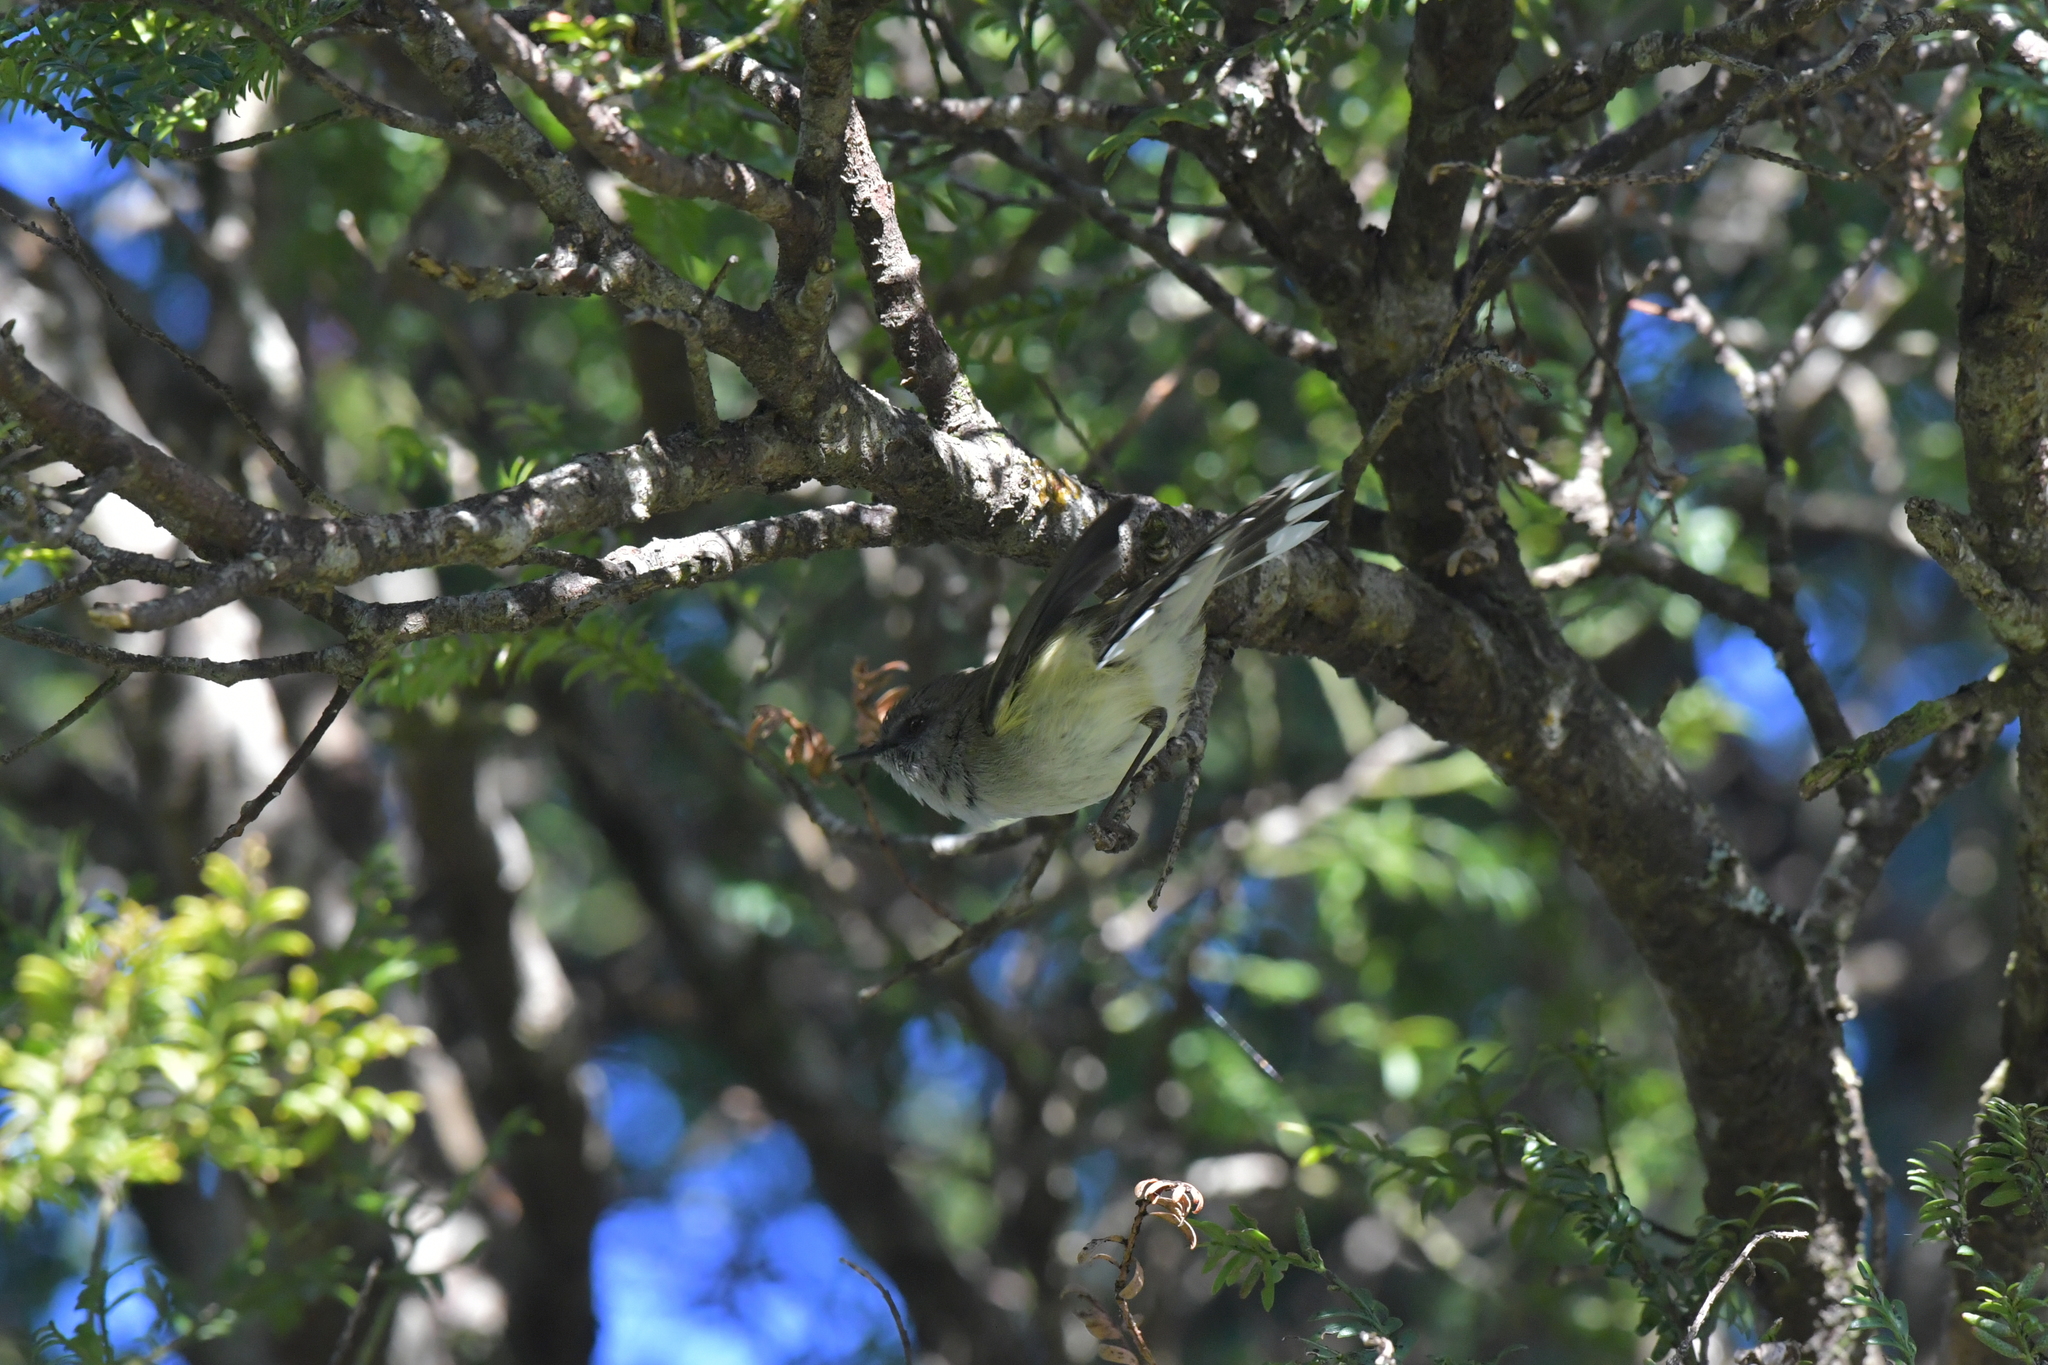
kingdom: Animalia
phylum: Chordata
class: Aves
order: Passeriformes
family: Acanthizidae
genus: Gerygone
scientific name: Gerygone igata
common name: Grey gerygone
